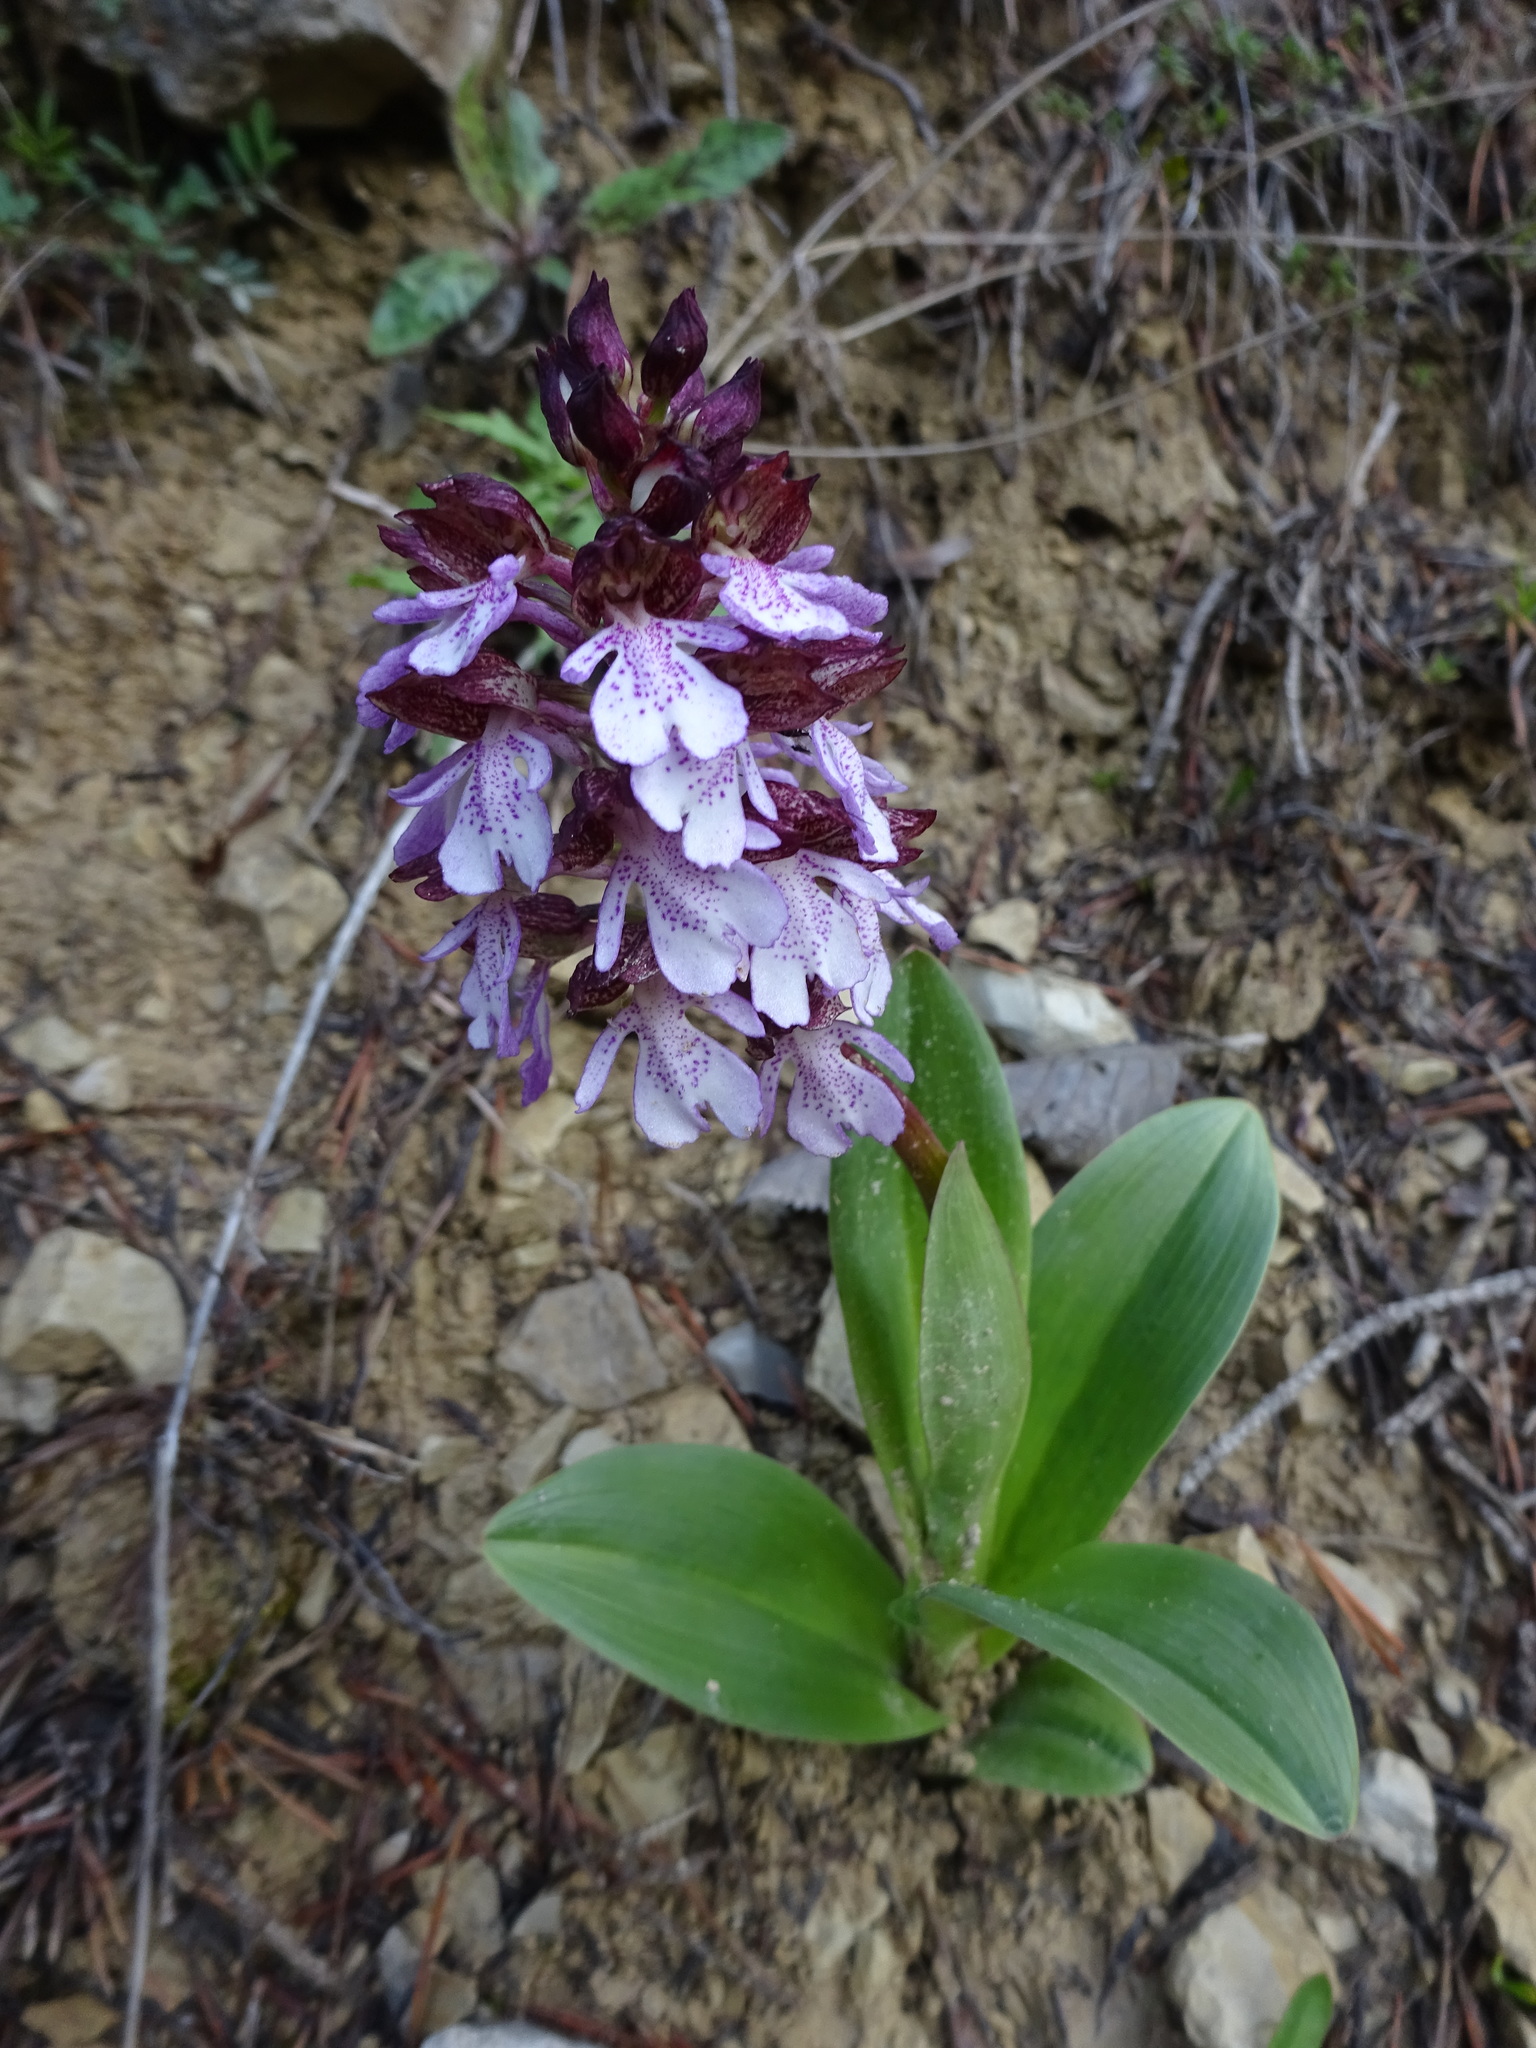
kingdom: Plantae
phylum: Tracheophyta
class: Liliopsida
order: Asparagales
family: Orchidaceae
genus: Orchis
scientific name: Orchis purpurea
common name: Lady orchid
